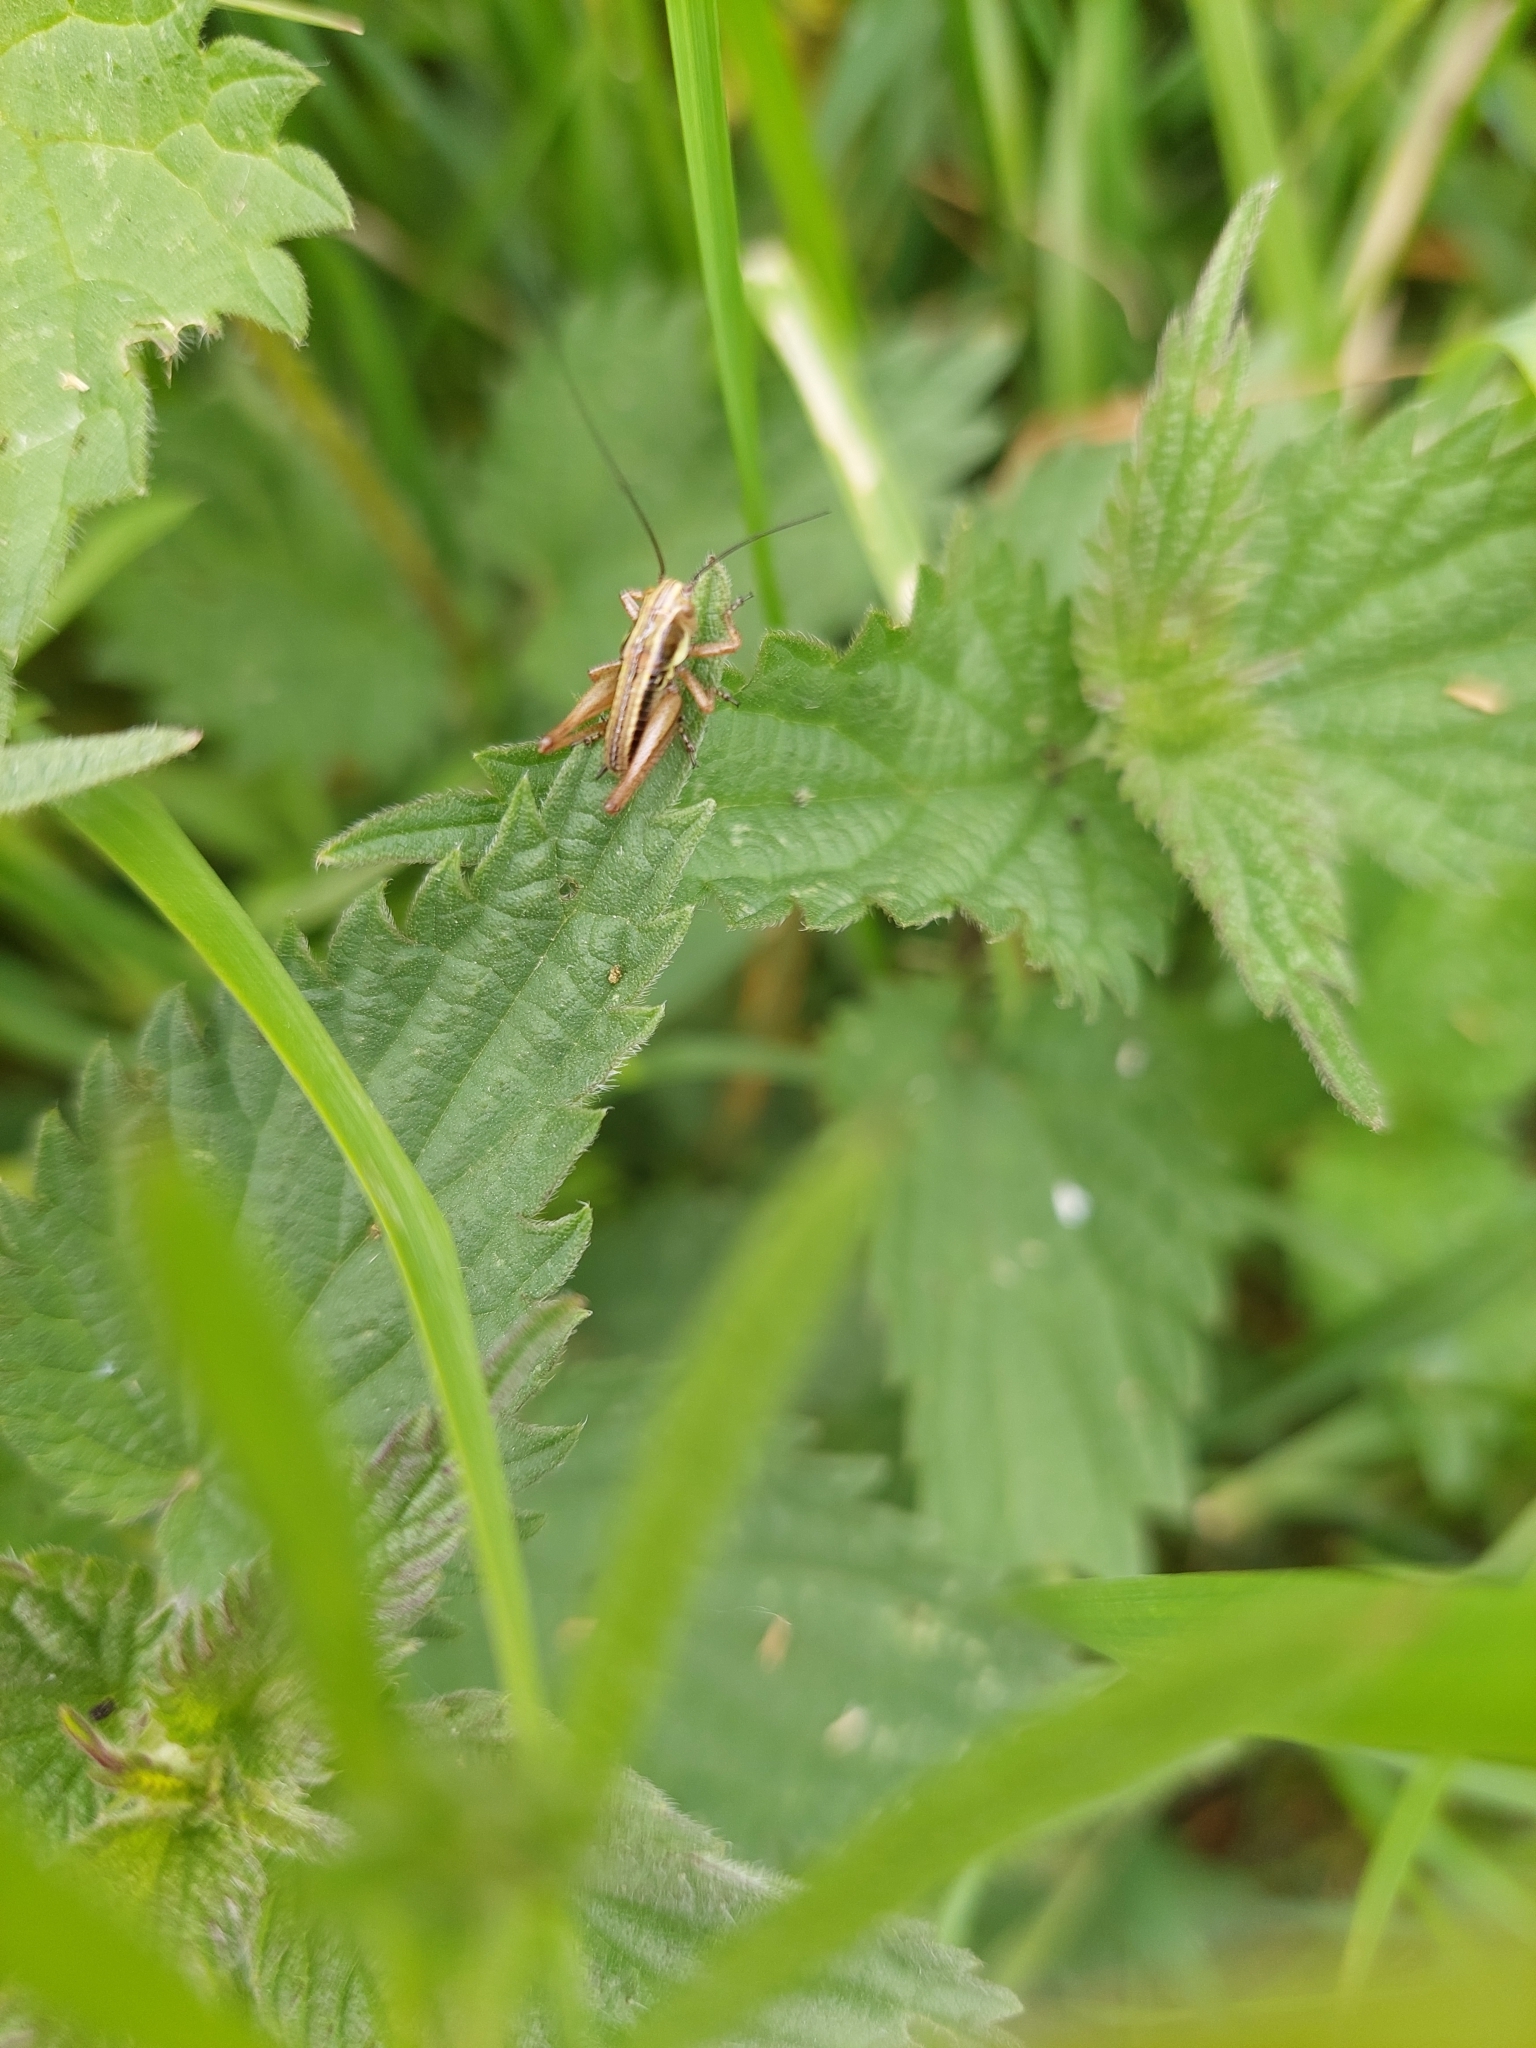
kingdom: Animalia
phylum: Arthropoda
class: Insecta
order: Orthoptera
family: Tettigoniidae
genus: Roeseliana
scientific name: Roeseliana roeselii
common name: Roesel's bush cricket
